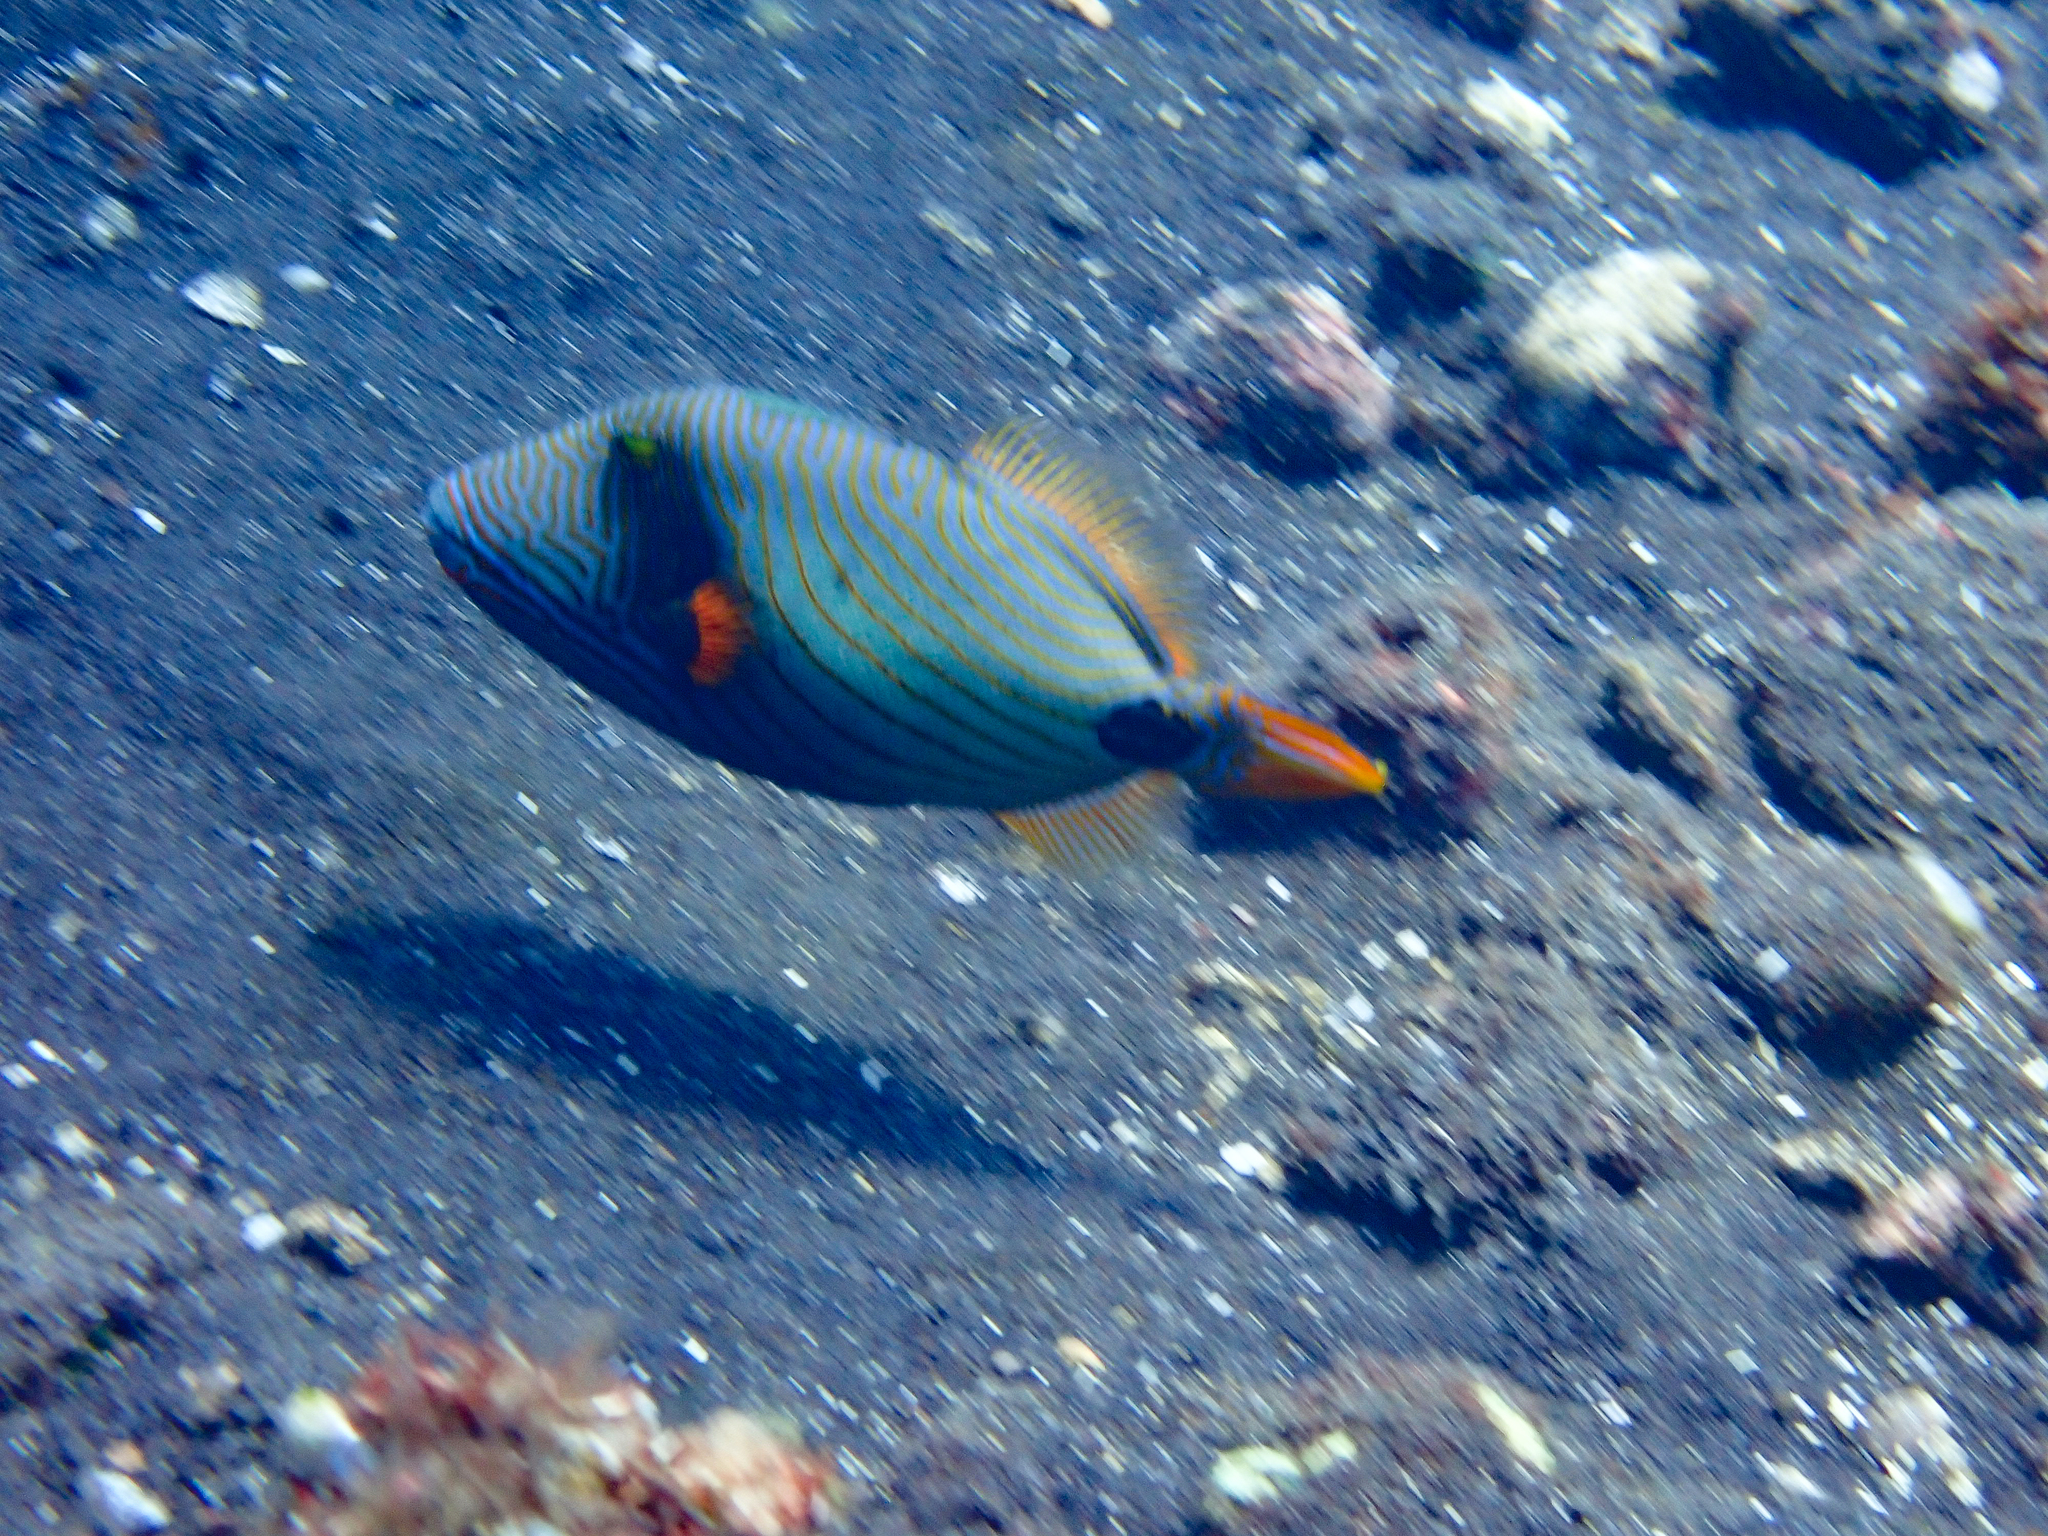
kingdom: Animalia
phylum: Chordata
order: Tetraodontiformes
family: Balistidae
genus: Balistapus
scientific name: Balistapus undulatus
